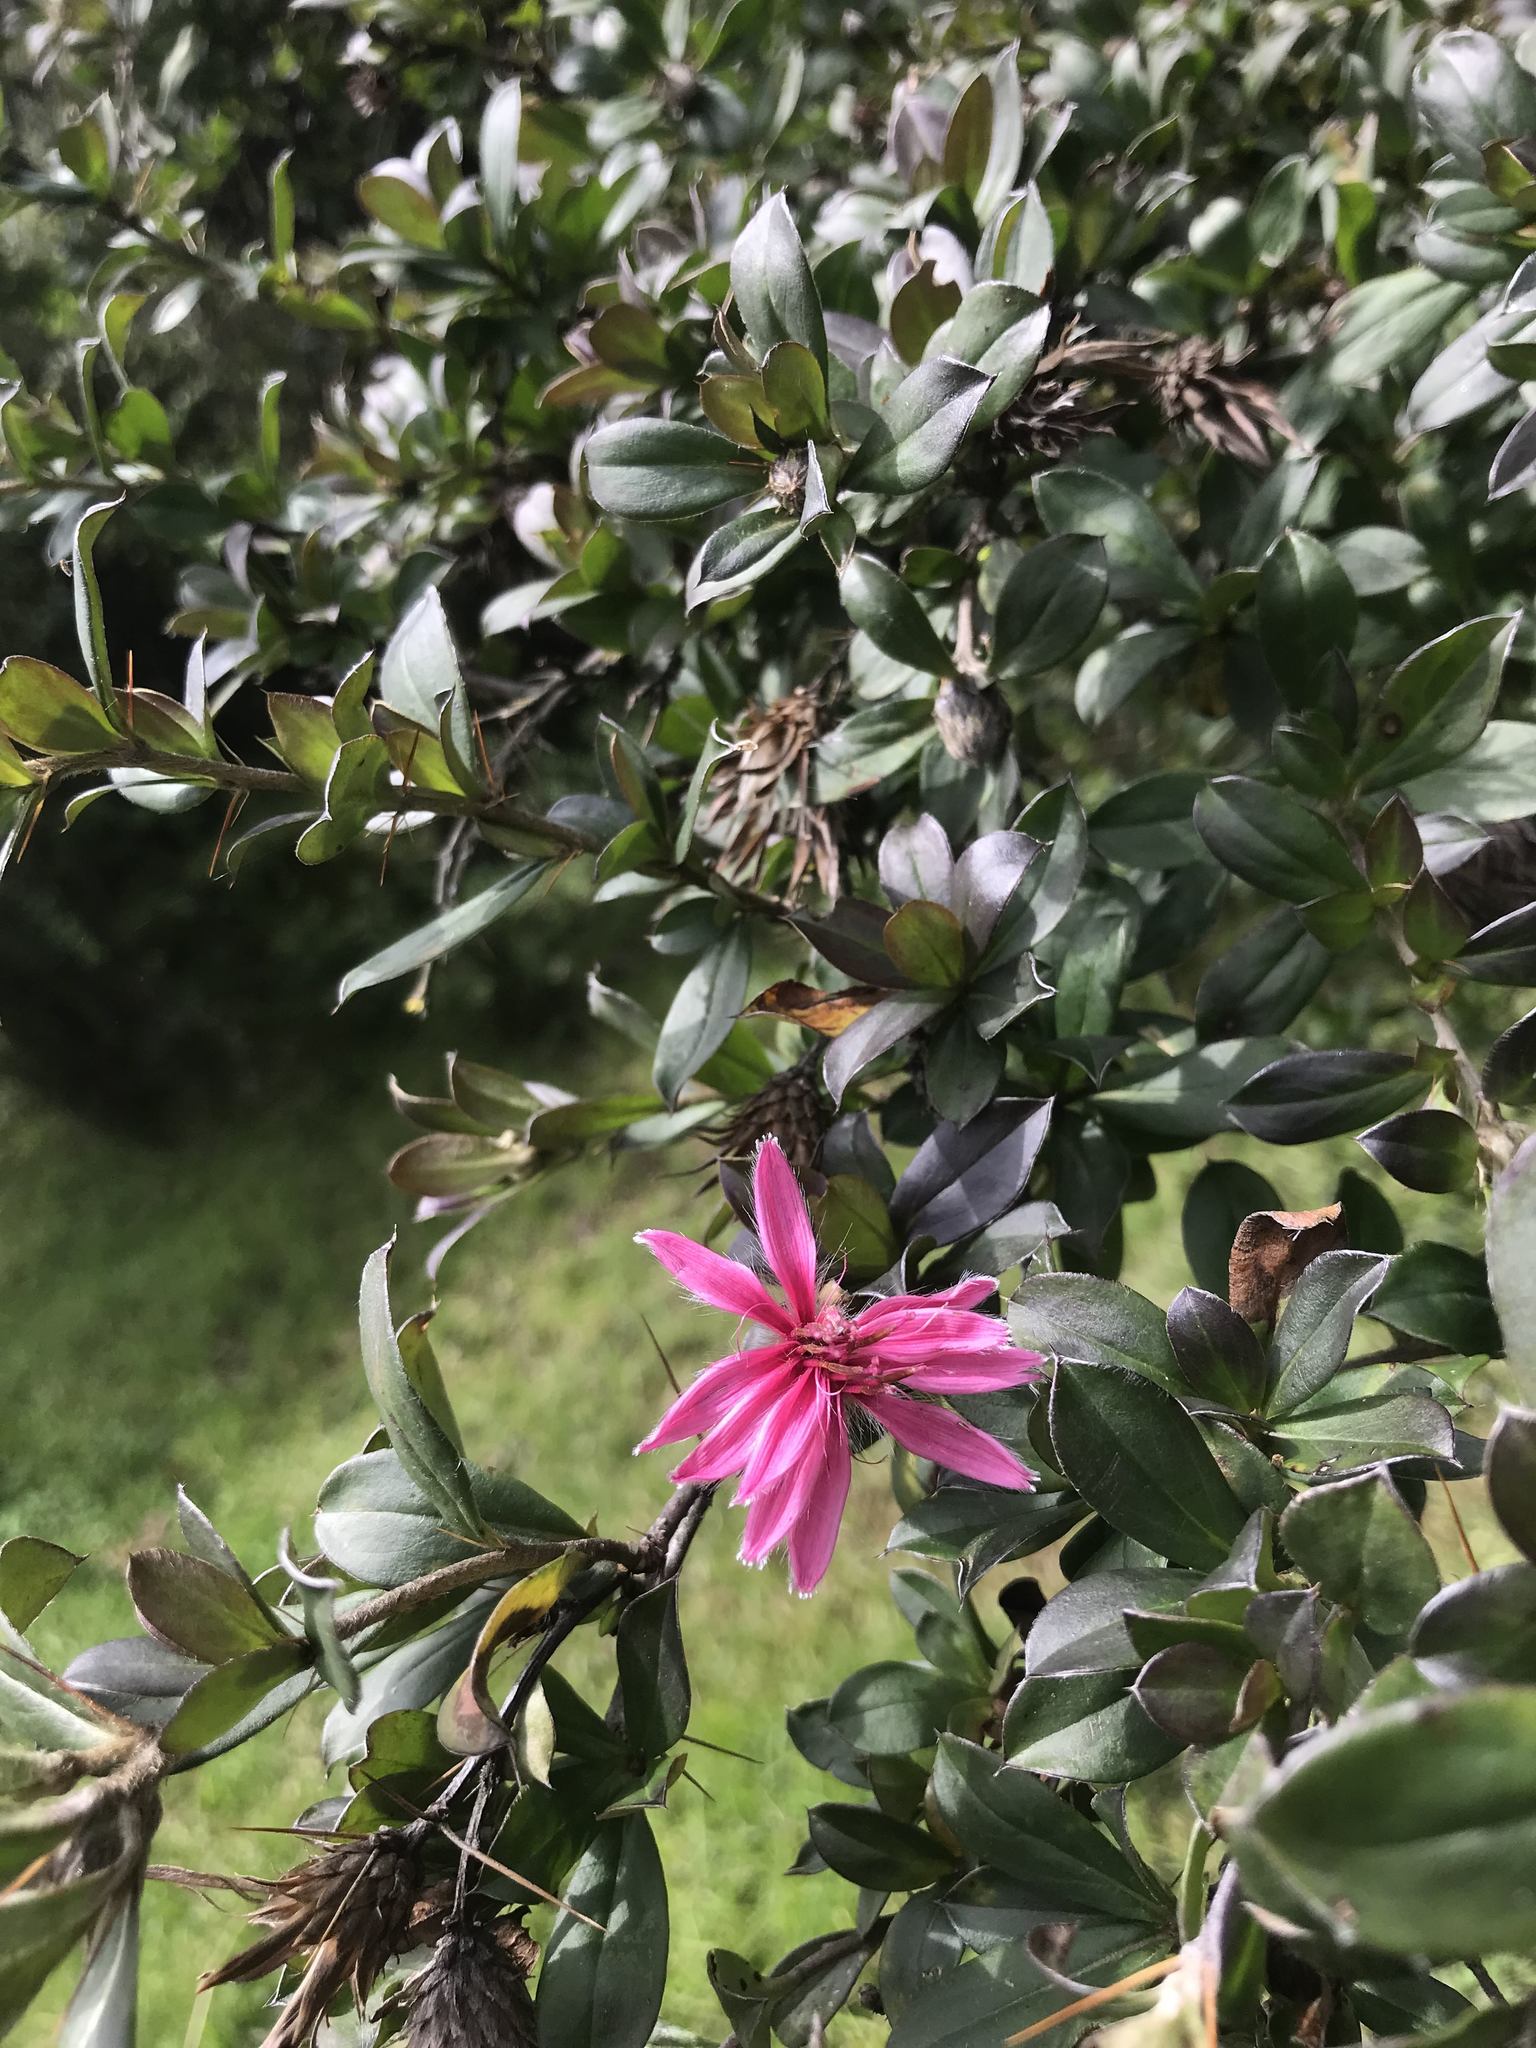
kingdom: Plantae
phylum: Tracheophyta
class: Magnoliopsida
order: Asterales
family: Asteraceae
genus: Barnadesia
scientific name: Barnadesia arborea
